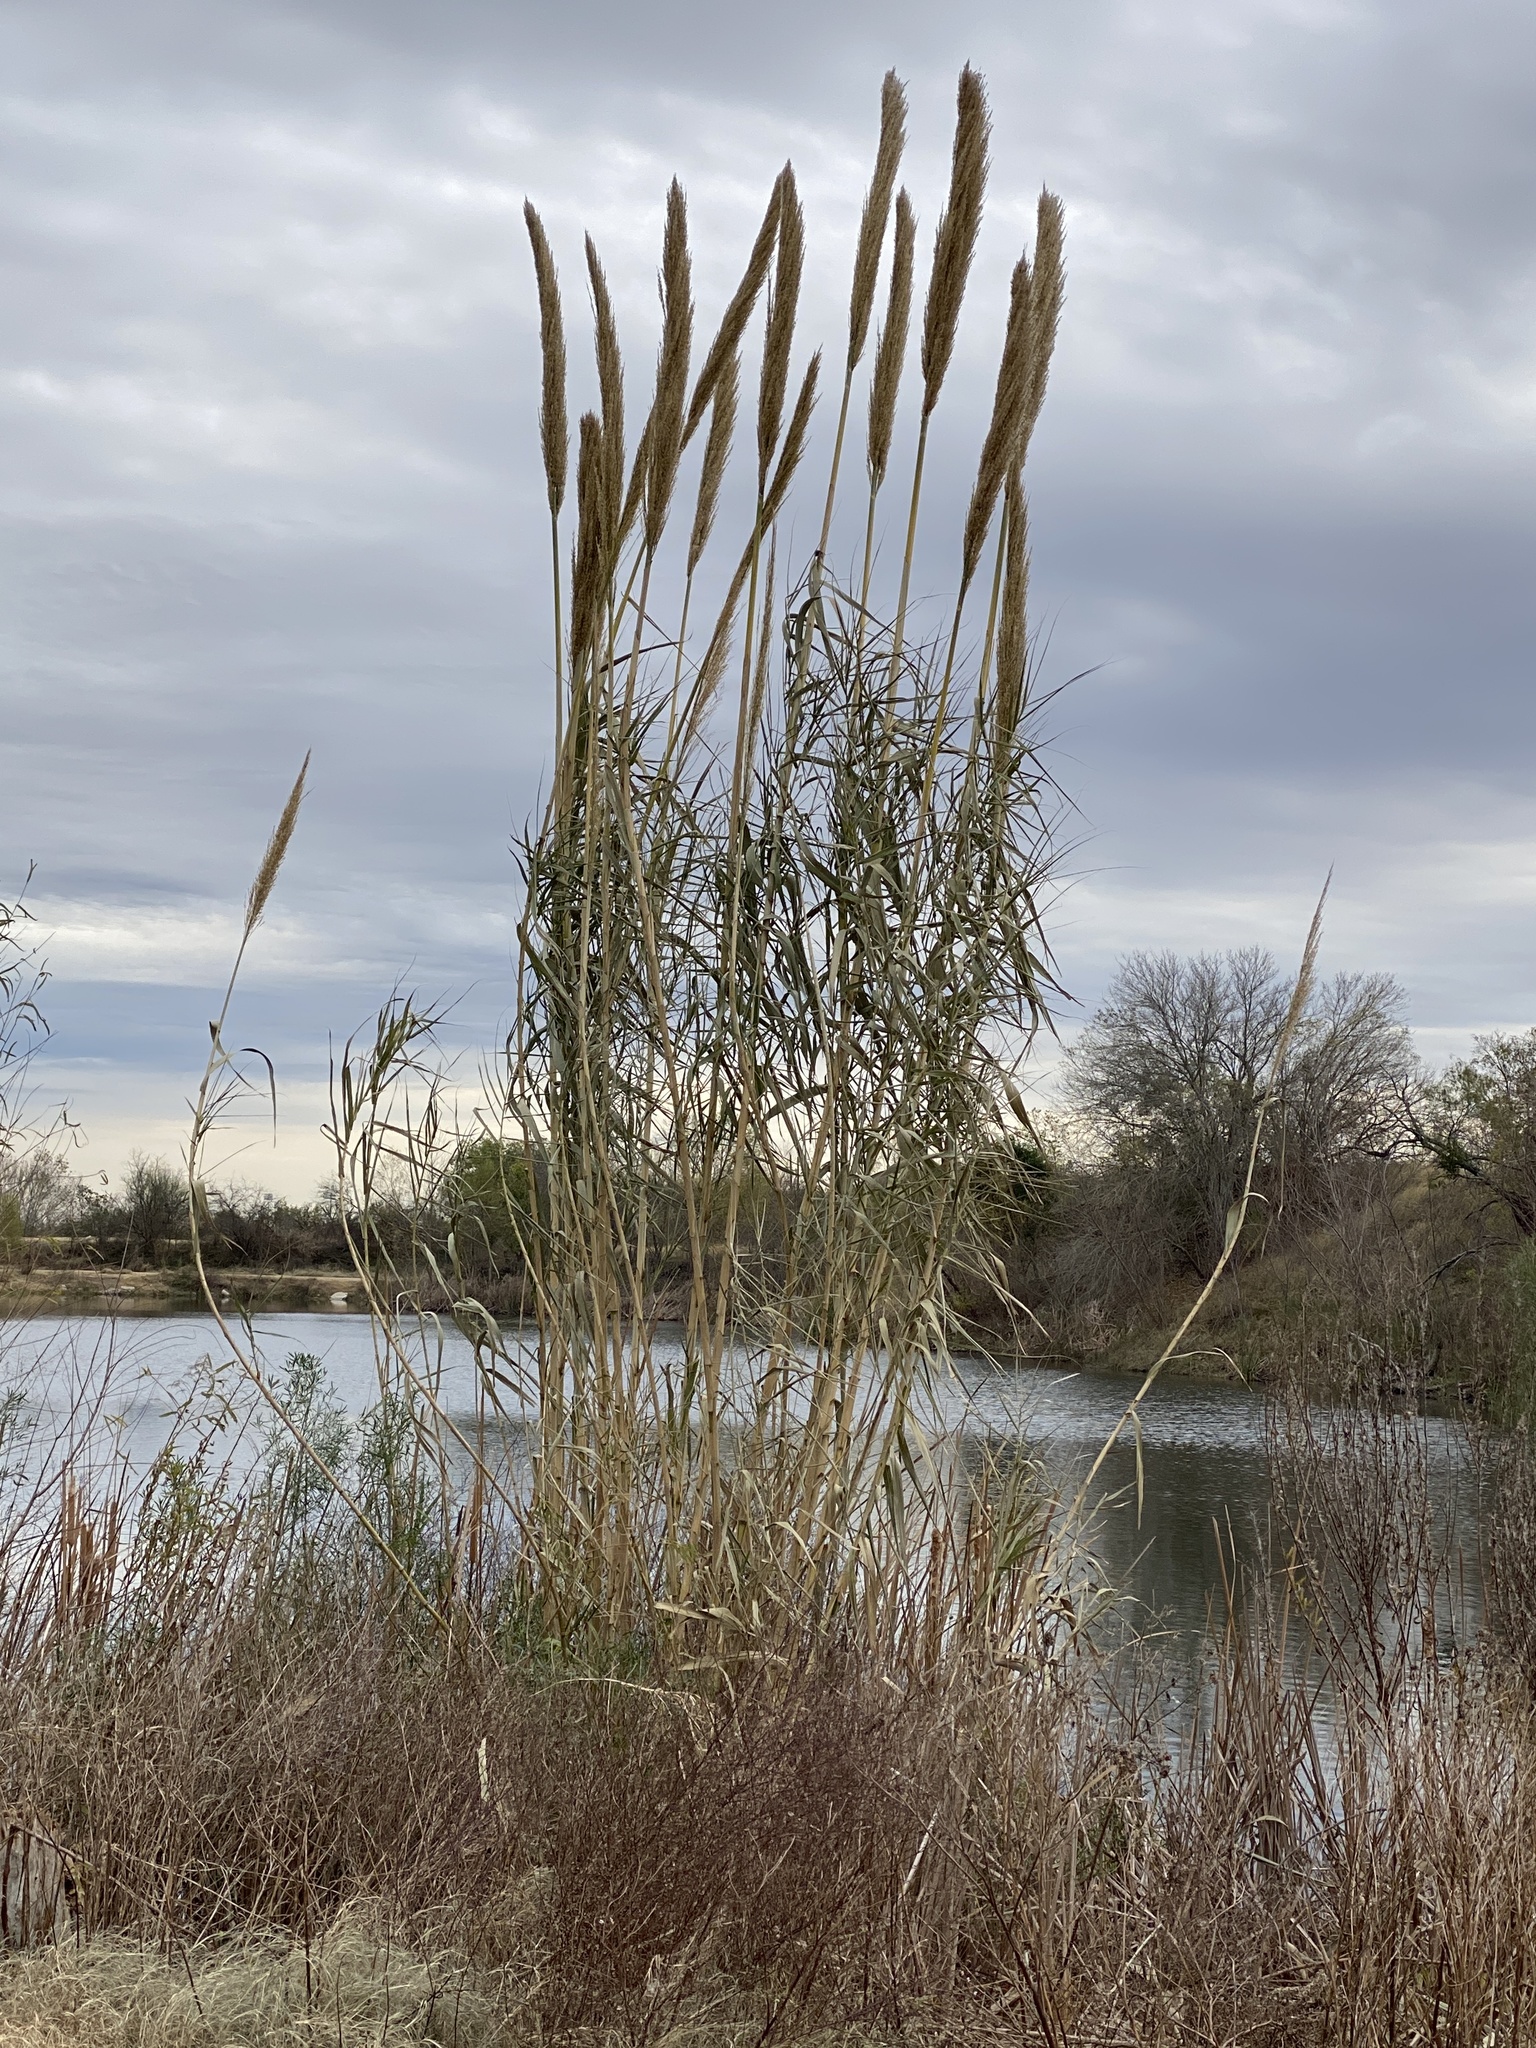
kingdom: Plantae
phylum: Tracheophyta
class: Liliopsida
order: Poales
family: Poaceae
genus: Arundo
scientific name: Arundo donax
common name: Giant reed
